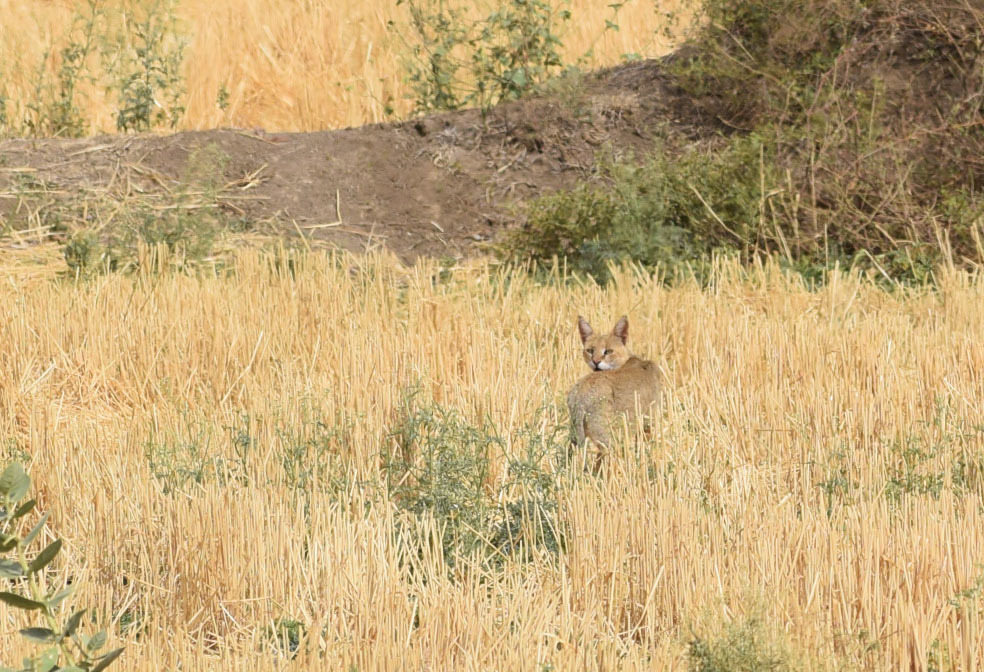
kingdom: Animalia
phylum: Chordata
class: Mammalia
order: Carnivora
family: Felidae
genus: Felis
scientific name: Felis chaus
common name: Jungle cat
